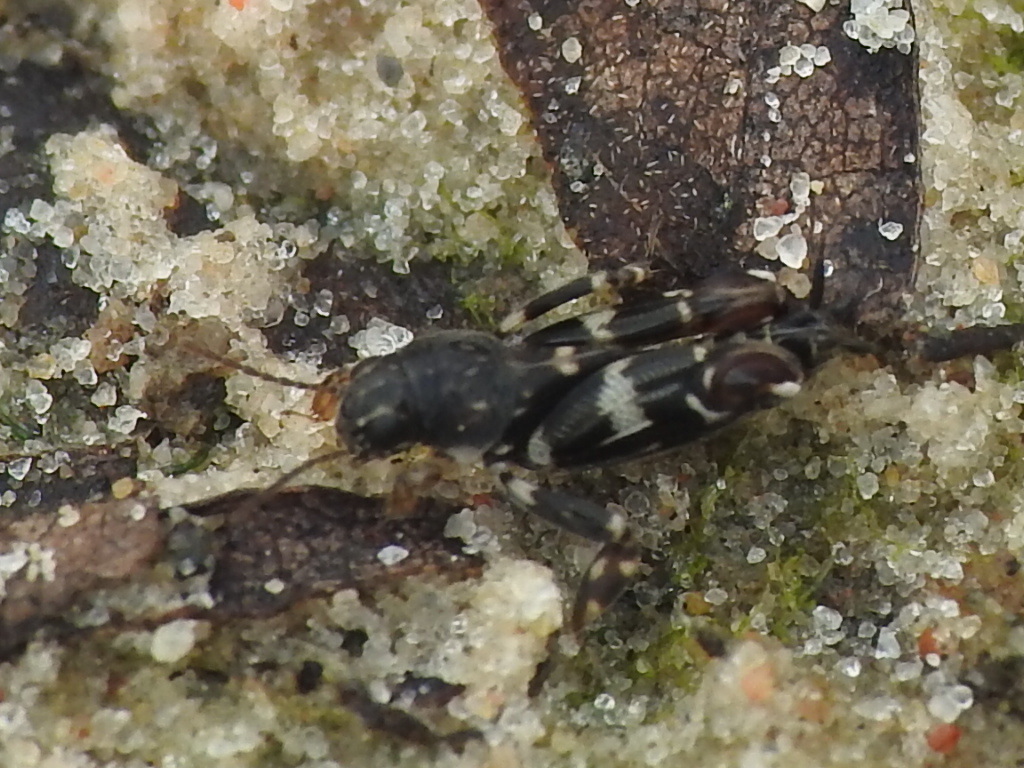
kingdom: Animalia
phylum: Arthropoda
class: Insecta
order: Orthoptera
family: Tridactylidae
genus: Ellipes
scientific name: Ellipes minuta
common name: Minute pygmy locust
